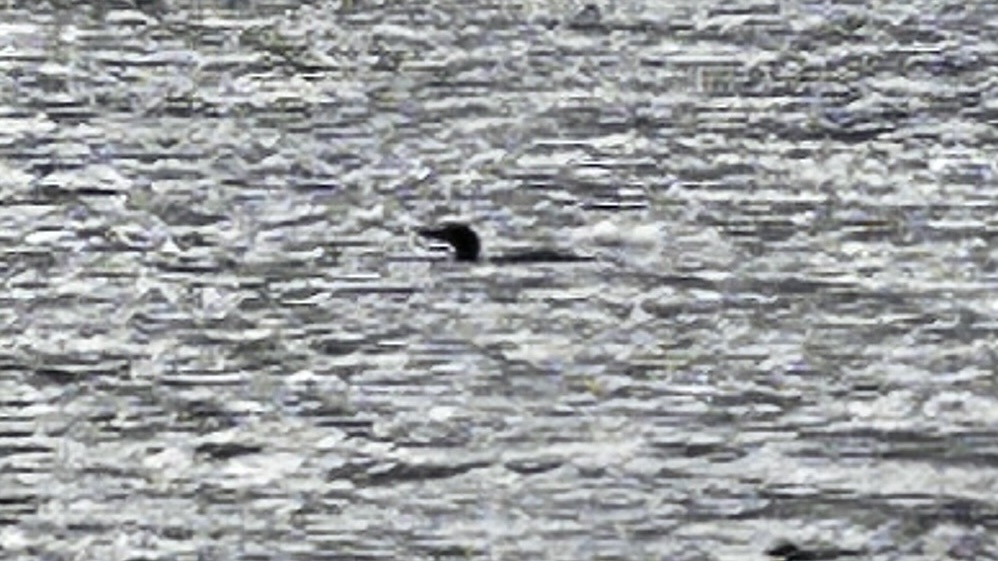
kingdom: Animalia
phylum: Chordata
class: Aves
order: Gaviiformes
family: Gaviidae
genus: Gavia
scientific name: Gavia immer
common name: Common loon
